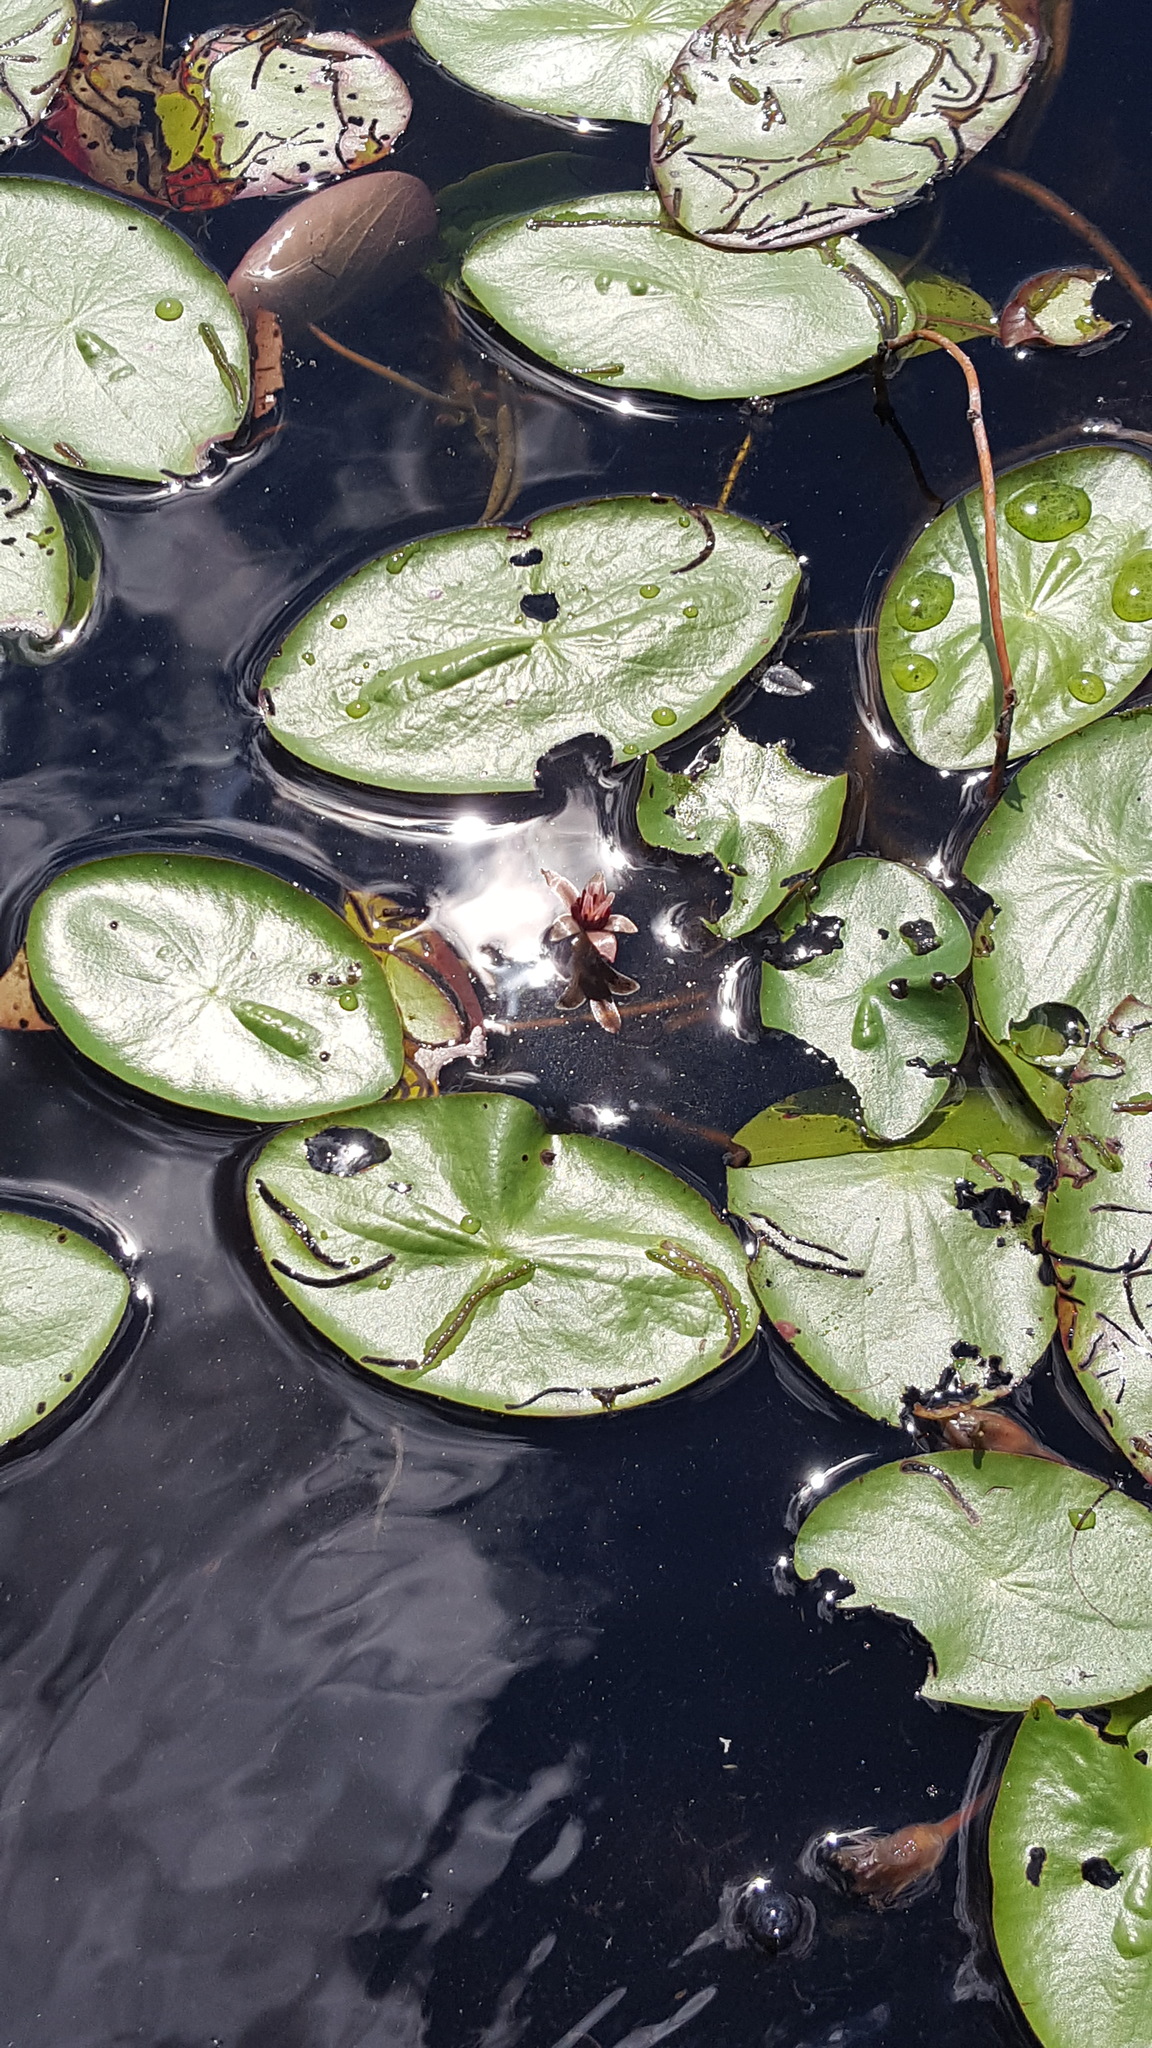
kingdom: Plantae
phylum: Tracheophyta
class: Magnoliopsida
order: Nymphaeales
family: Cabombaceae
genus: Brasenia
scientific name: Brasenia schreberi
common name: Water-shield
